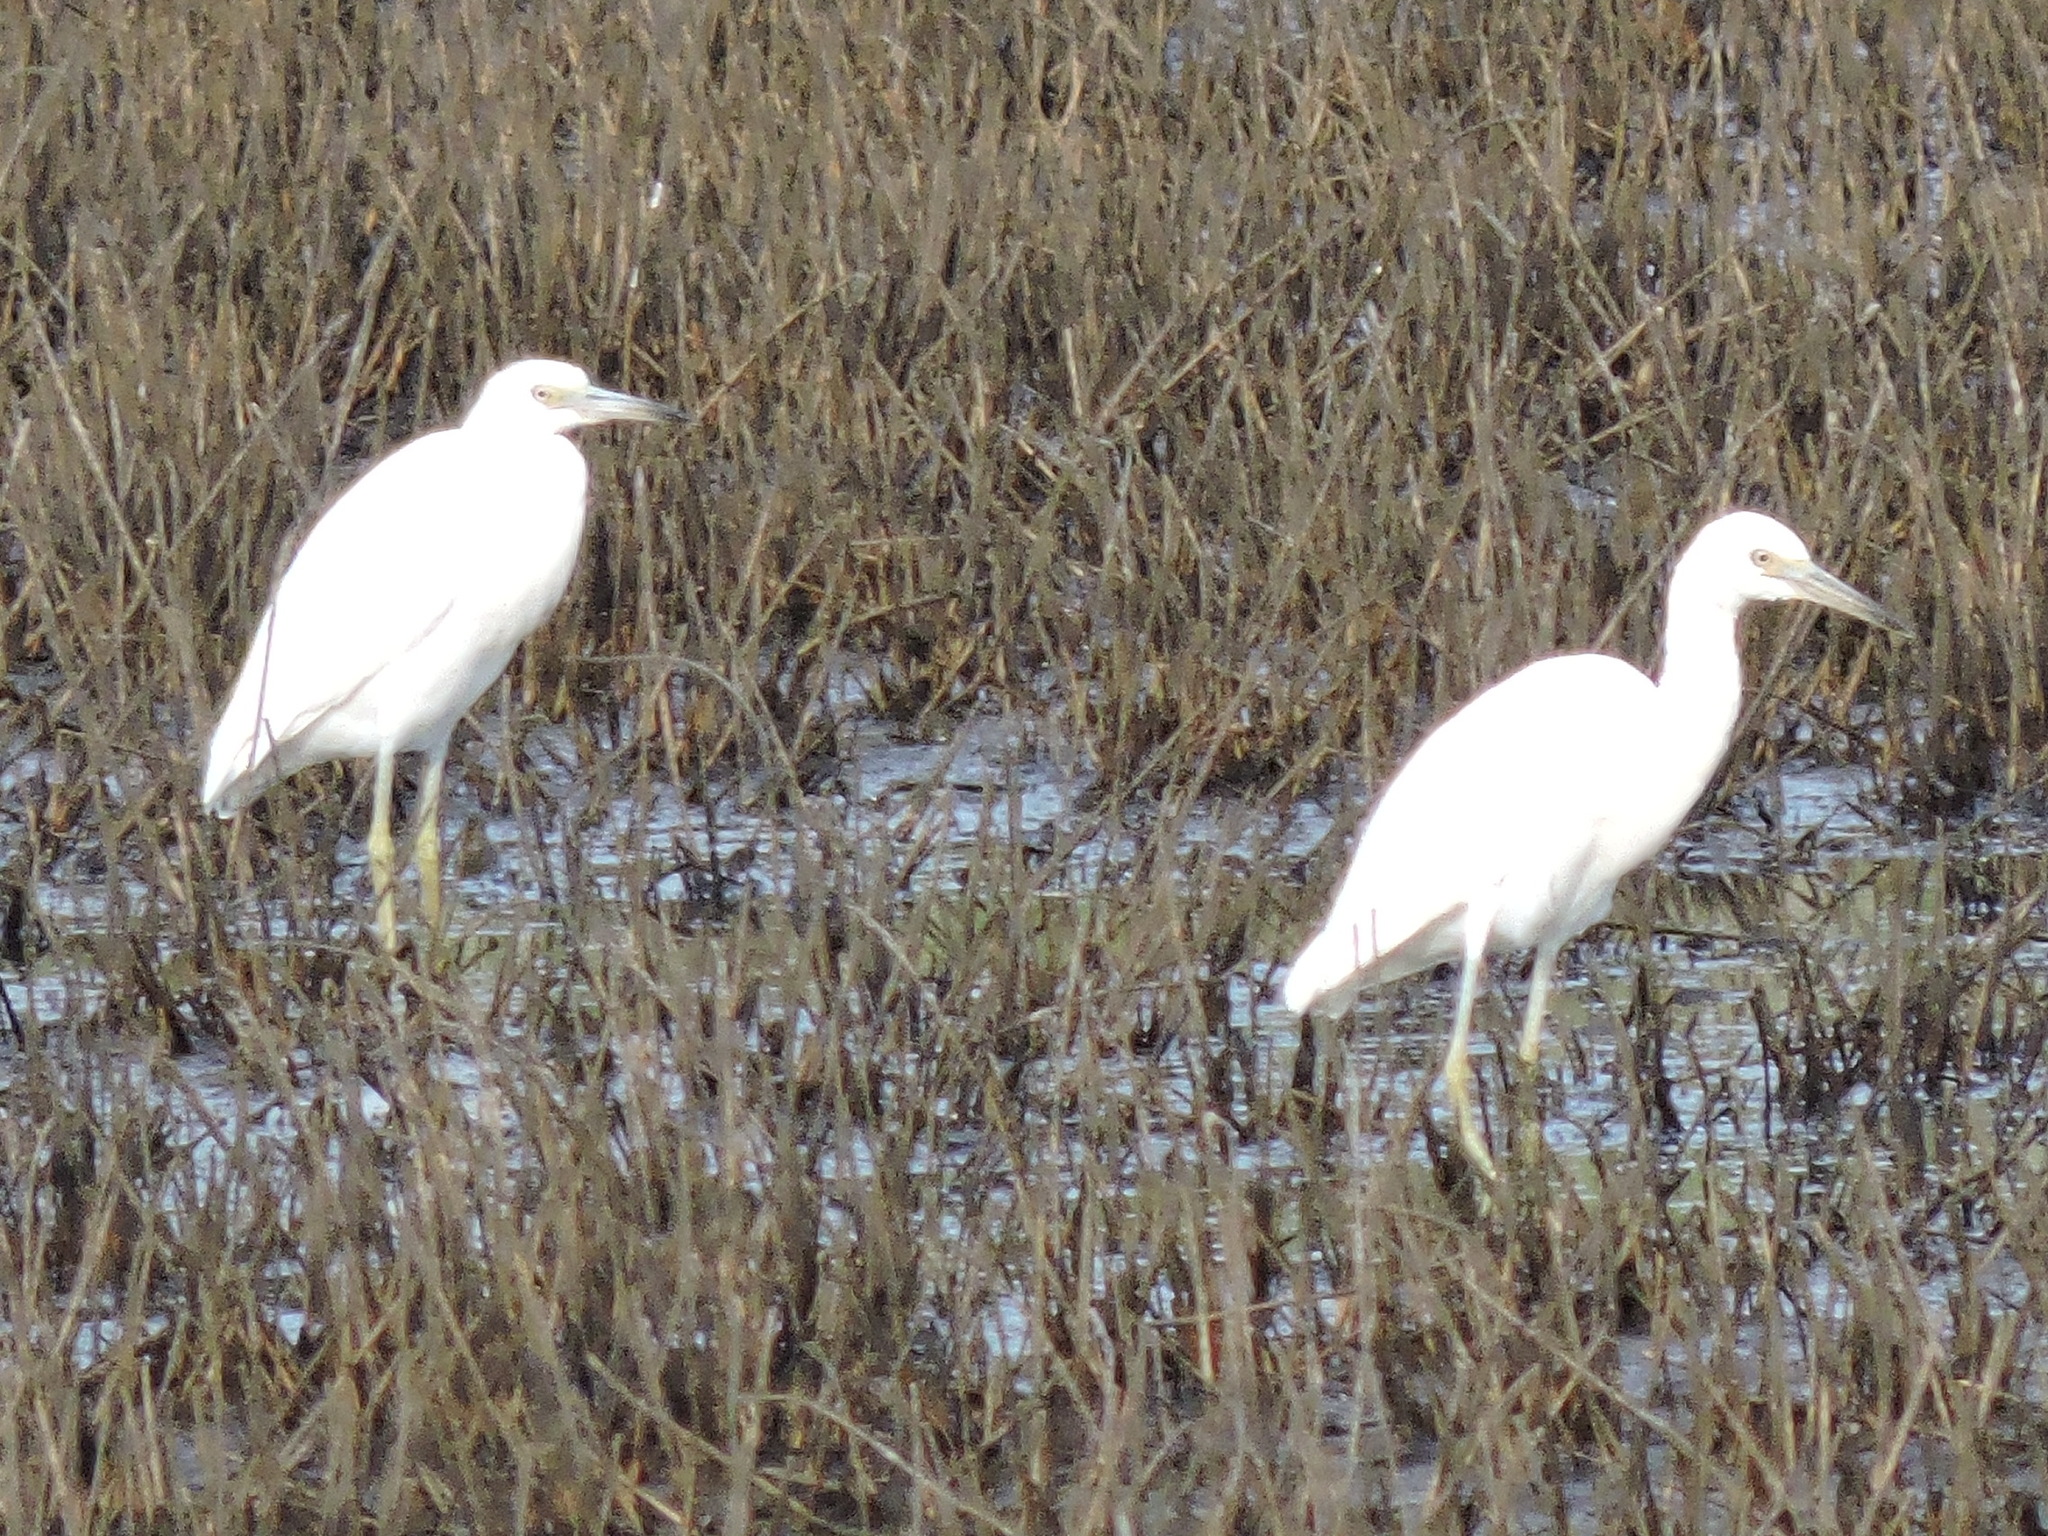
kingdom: Animalia
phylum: Chordata
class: Aves
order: Pelecaniformes
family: Ardeidae
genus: Egretta
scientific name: Egretta caerulea
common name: Little blue heron
